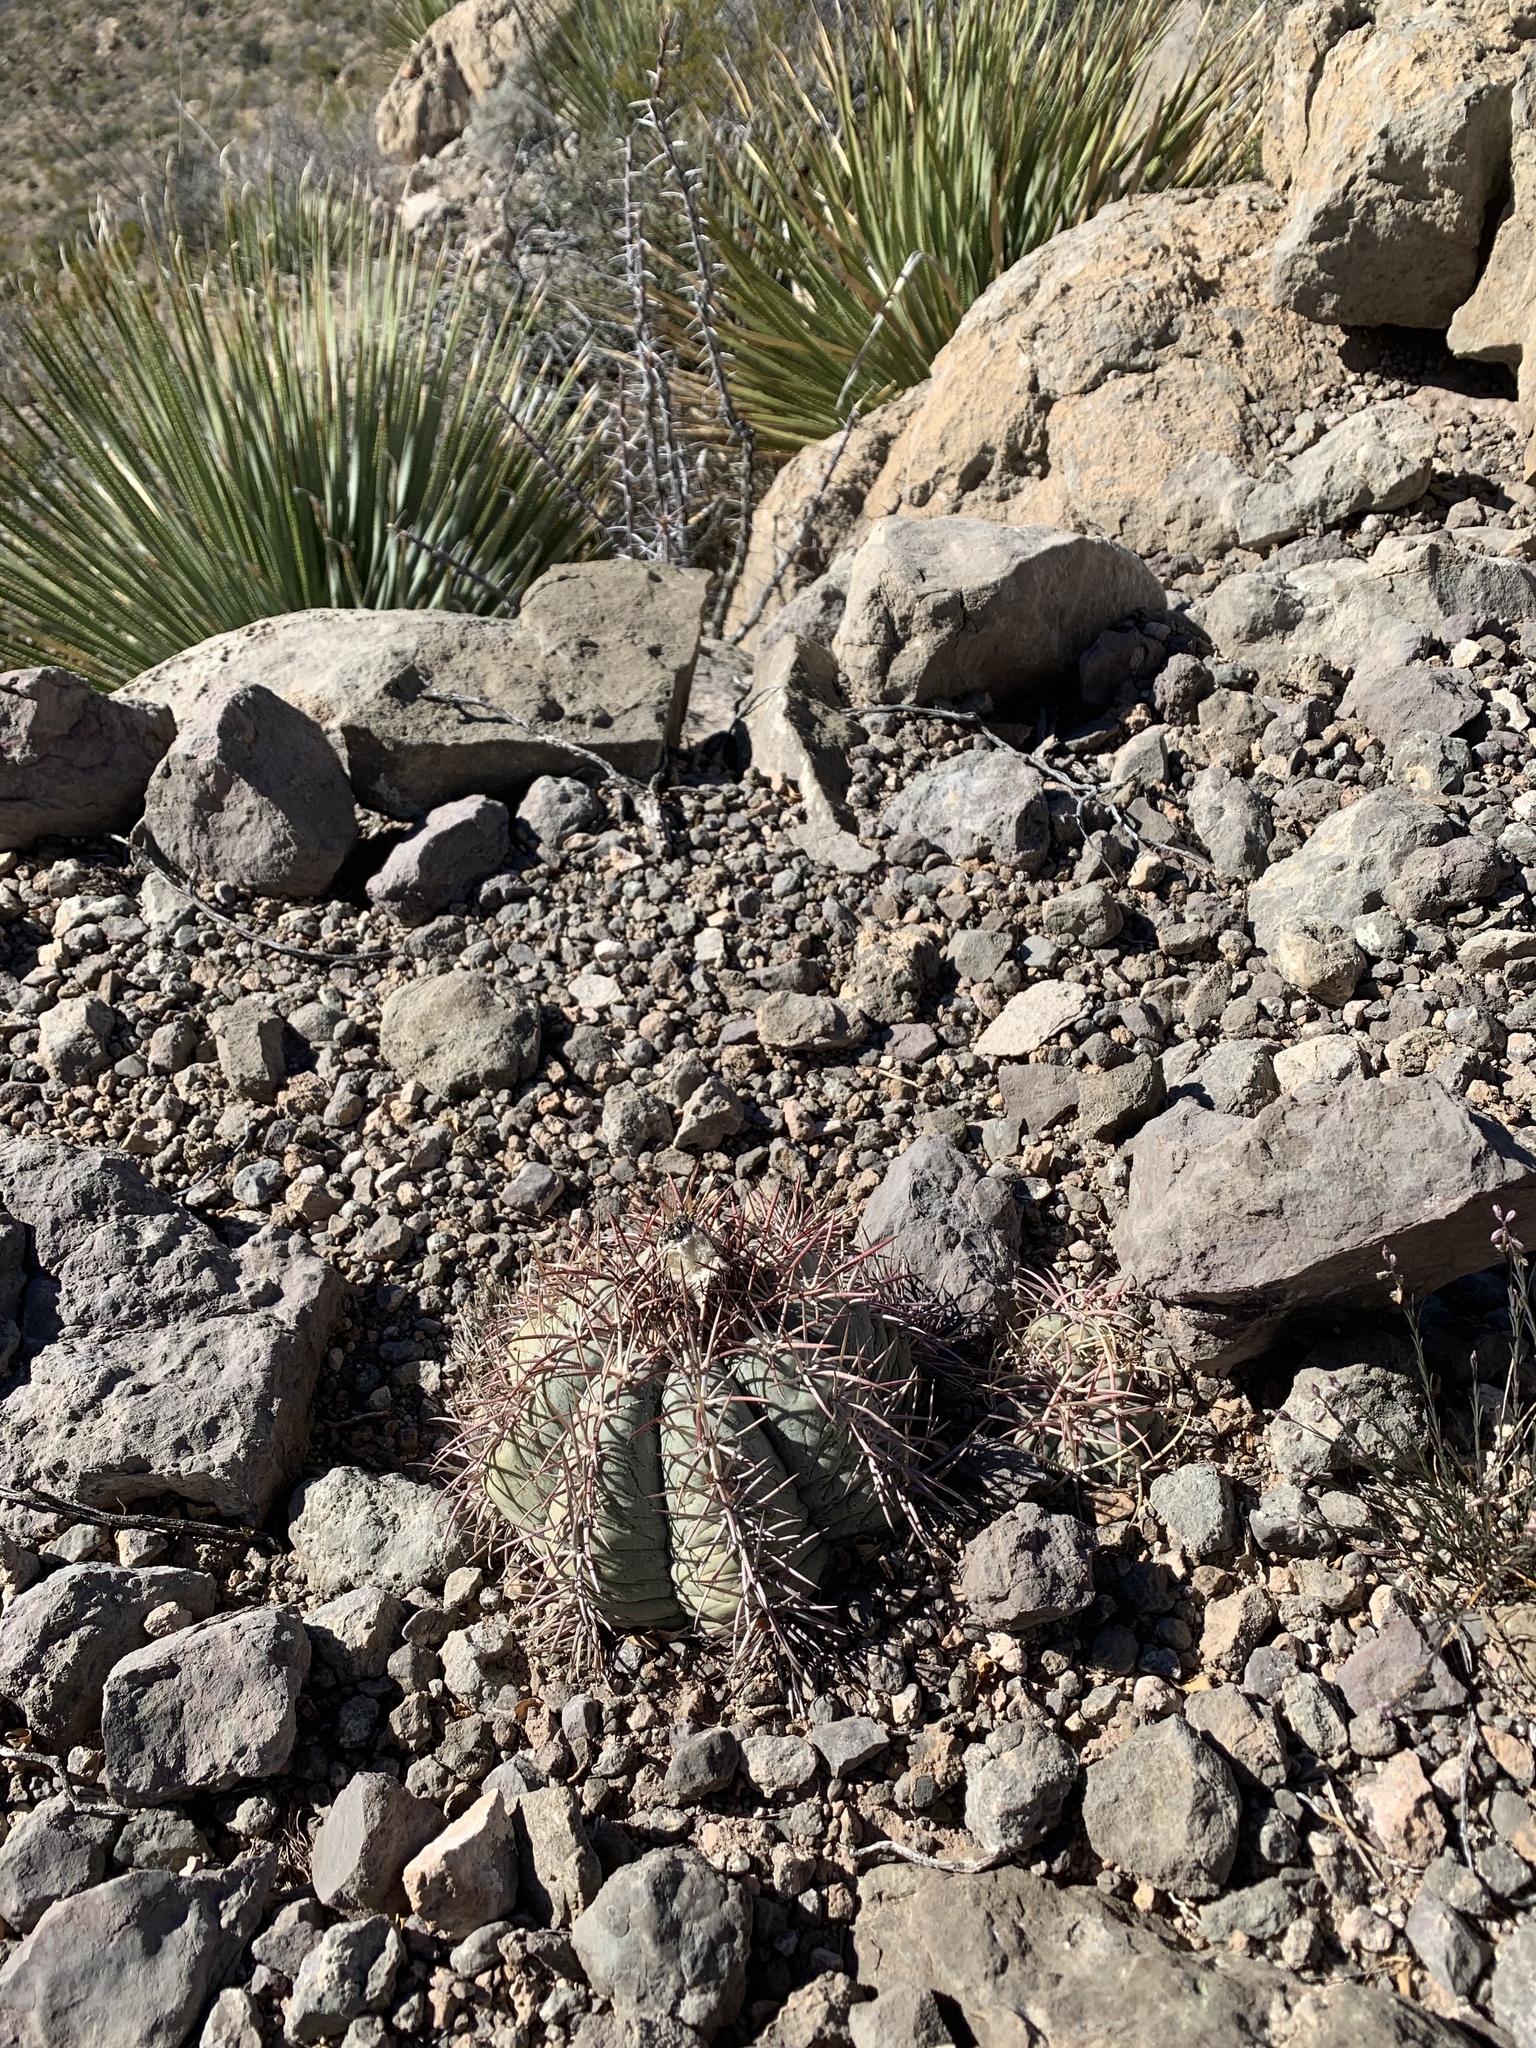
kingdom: Plantae
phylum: Tracheophyta
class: Magnoliopsida
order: Caryophyllales
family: Cactaceae
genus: Echinocactus
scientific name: Echinocactus horizonthalonius
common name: Devilshead
